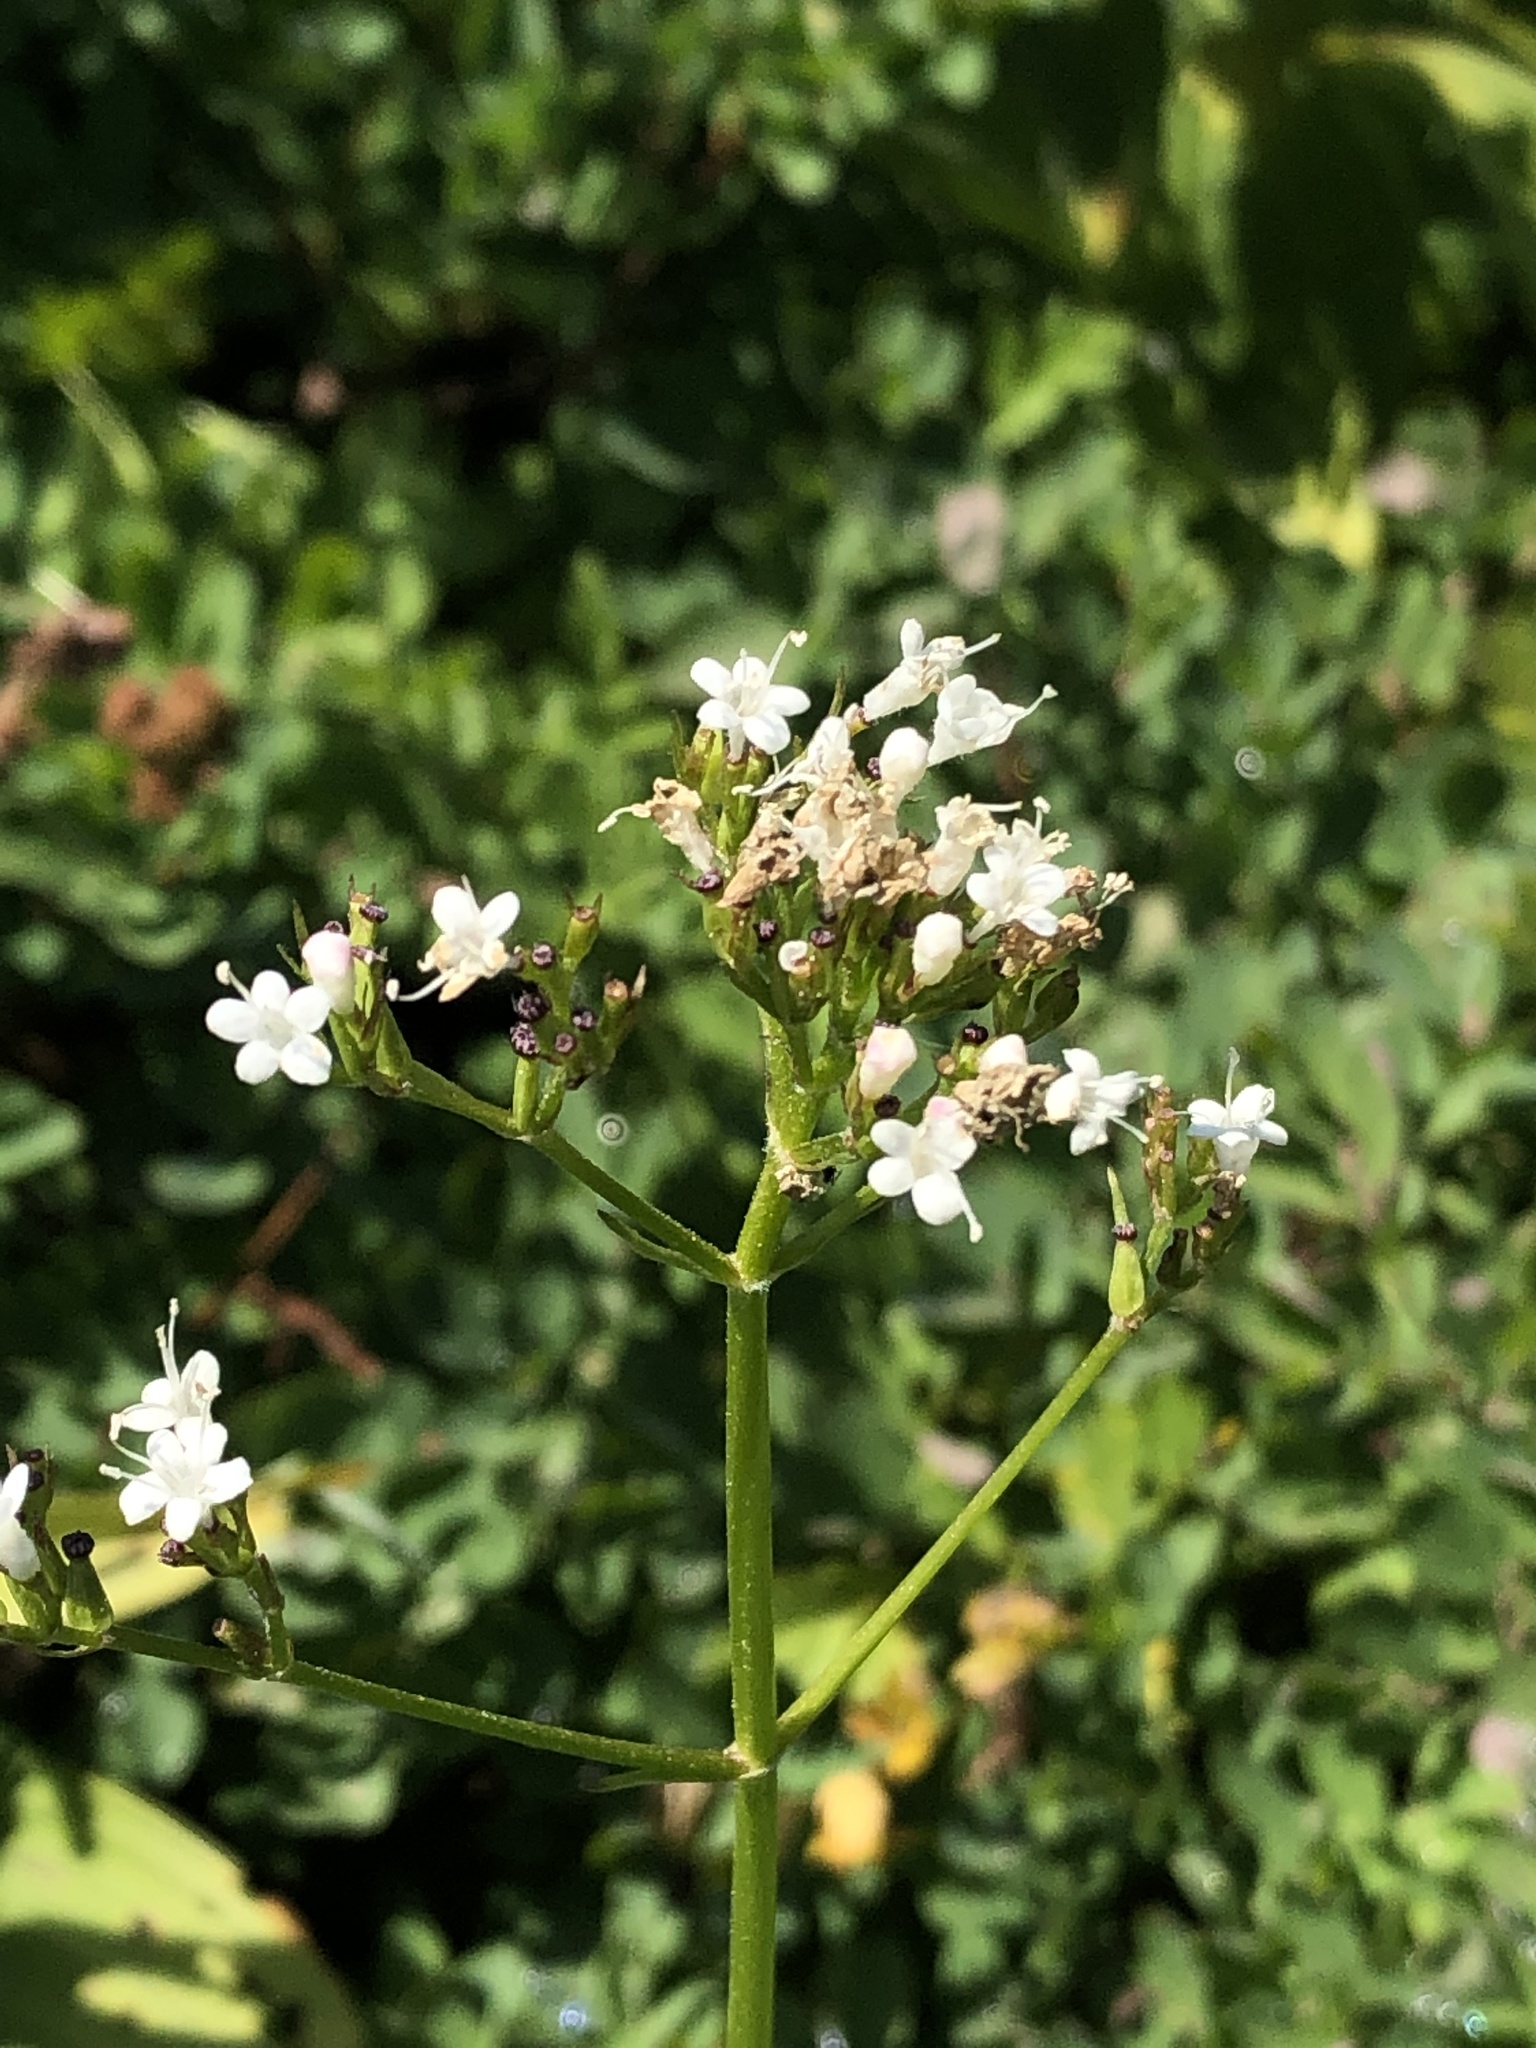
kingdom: Plantae
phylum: Tracheophyta
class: Magnoliopsida
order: Dipsacales
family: Caprifoliaceae
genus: Valeriana
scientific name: Valeriana sitchensis
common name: Pacific valerian
